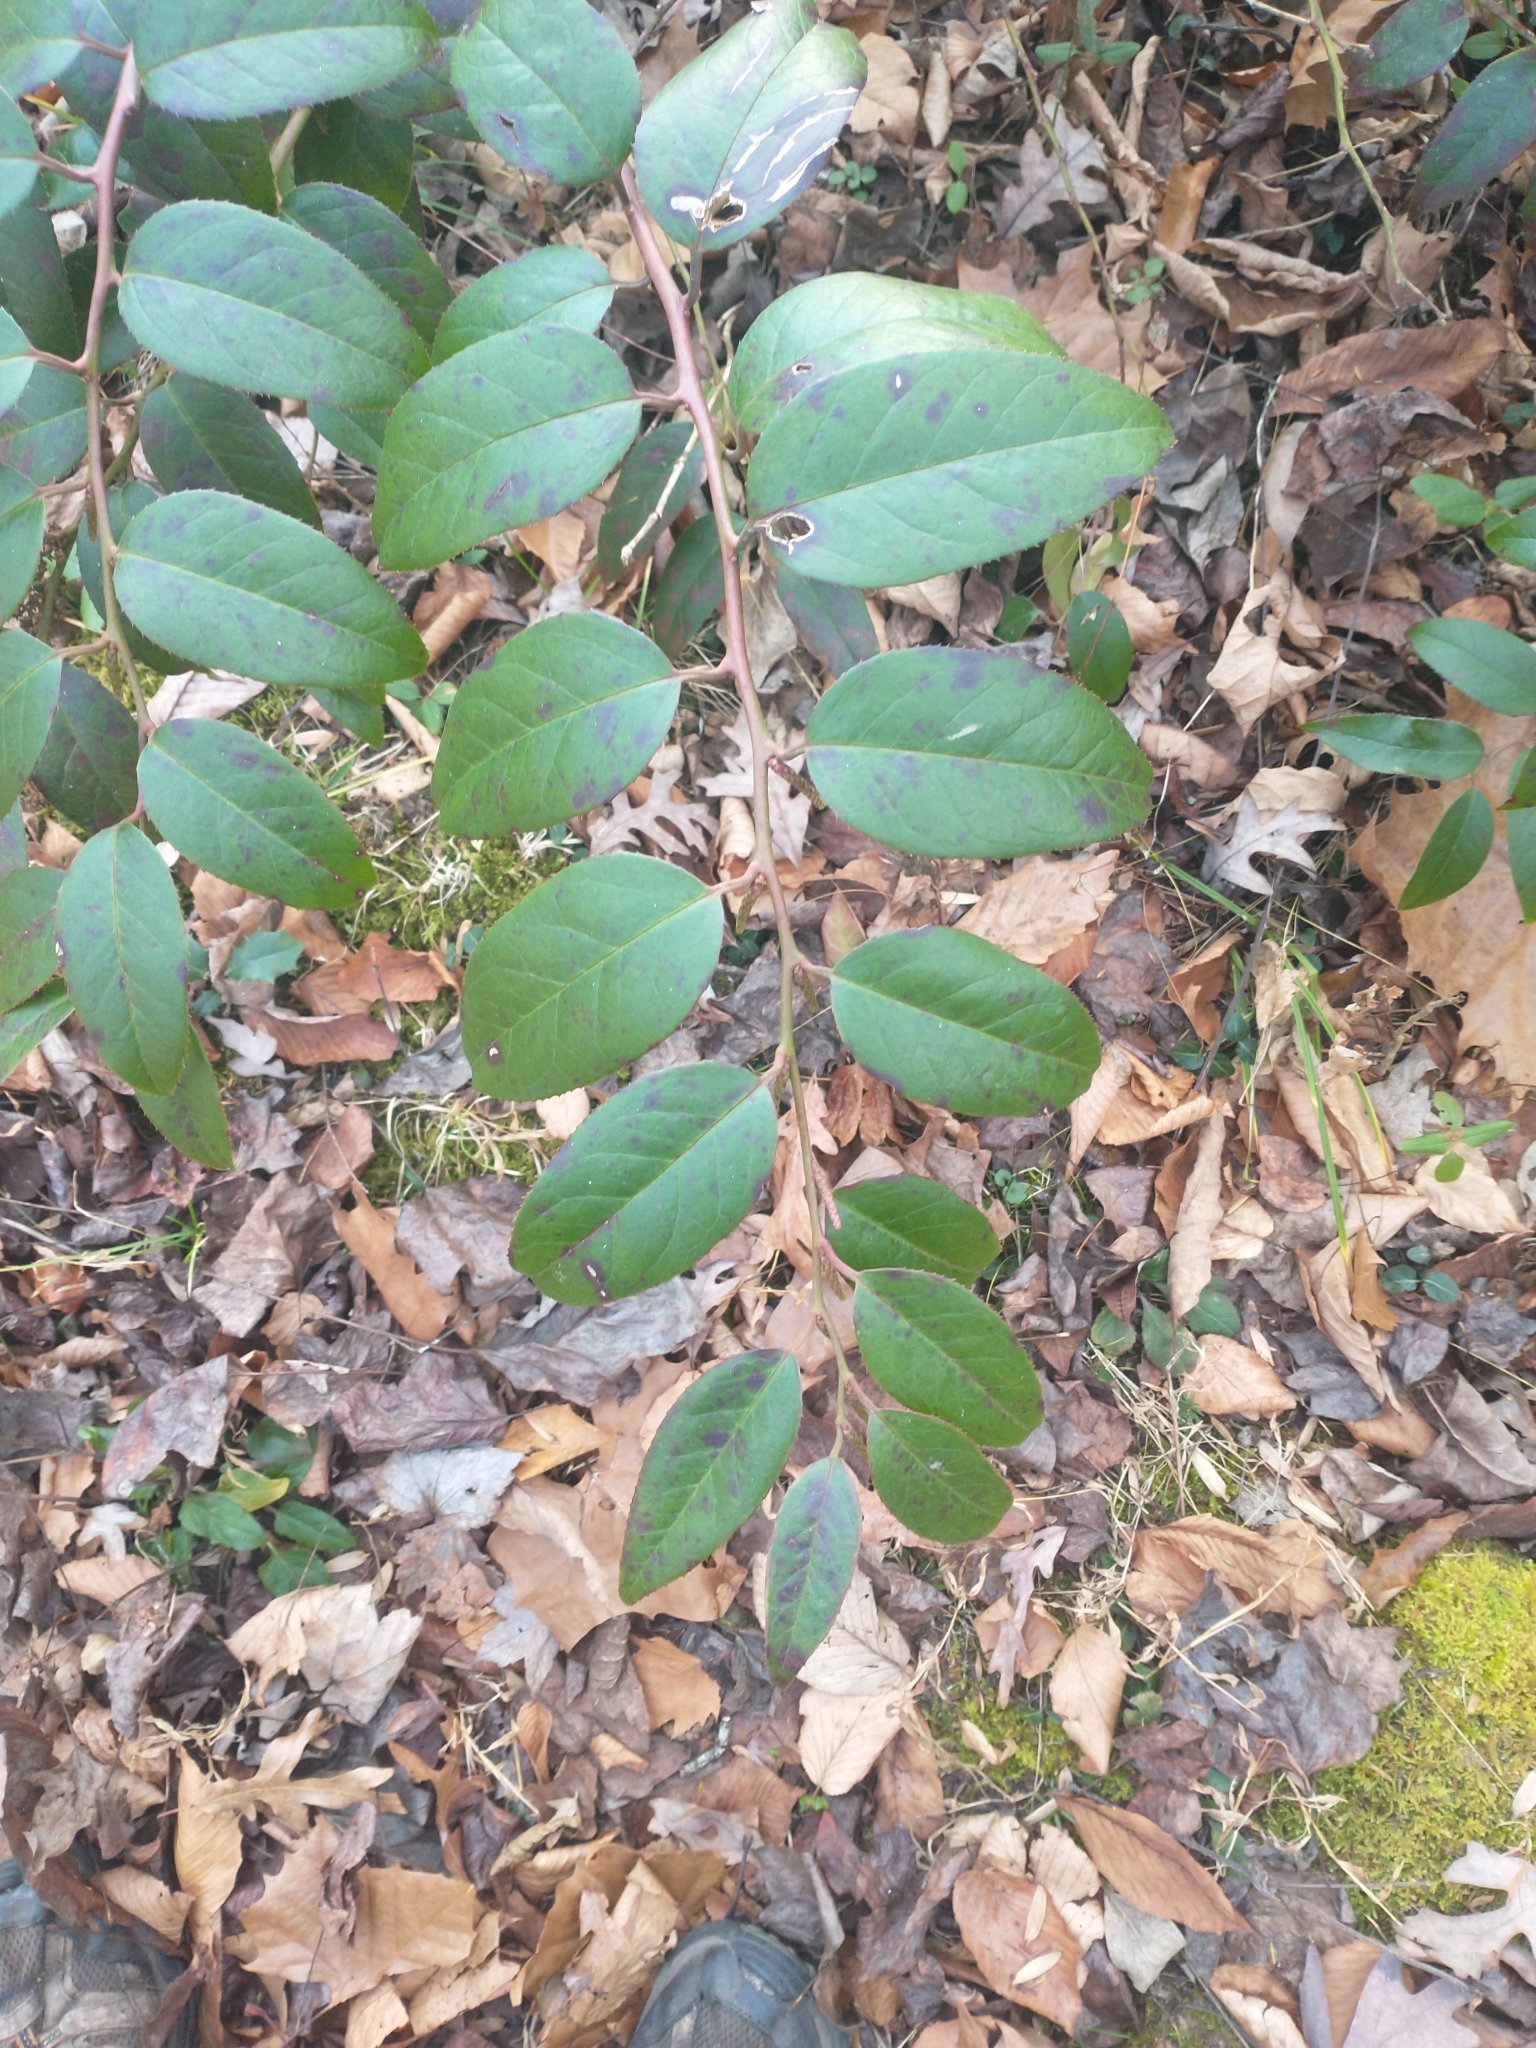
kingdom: Plantae
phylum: Tracheophyta
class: Magnoliopsida
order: Ericales
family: Ericaceae
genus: Leucothoe
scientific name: Leucothoe fontanesiana
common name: Fetterbush
